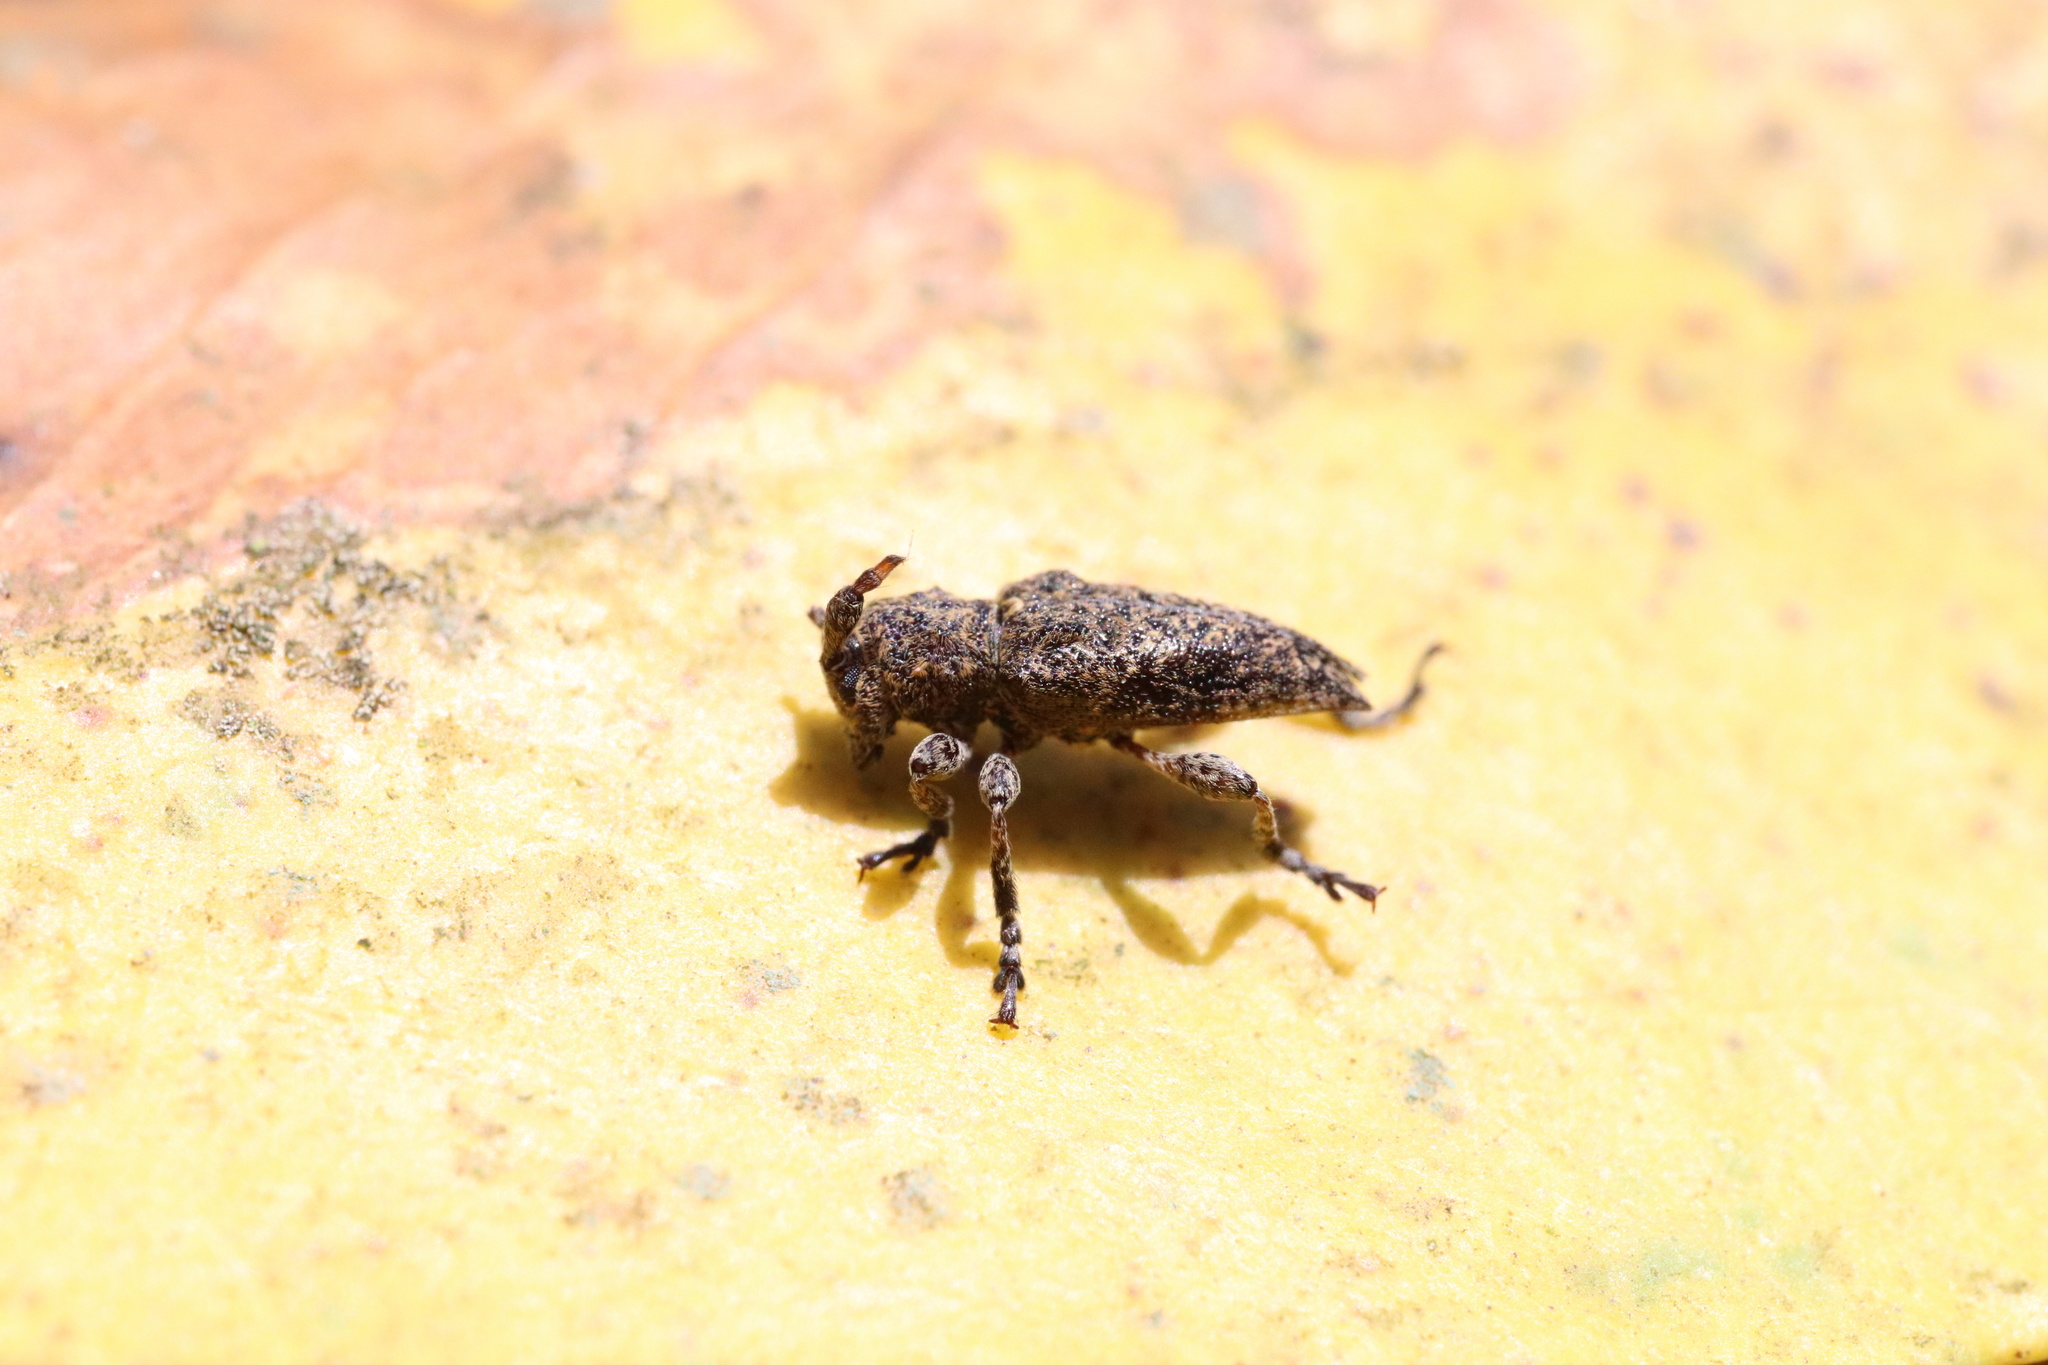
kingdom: Animalia
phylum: Arthropoda
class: Insecta
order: Coleoptera
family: Cerambycidae
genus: Aconopterus
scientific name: Aconopterus cristatipennis
